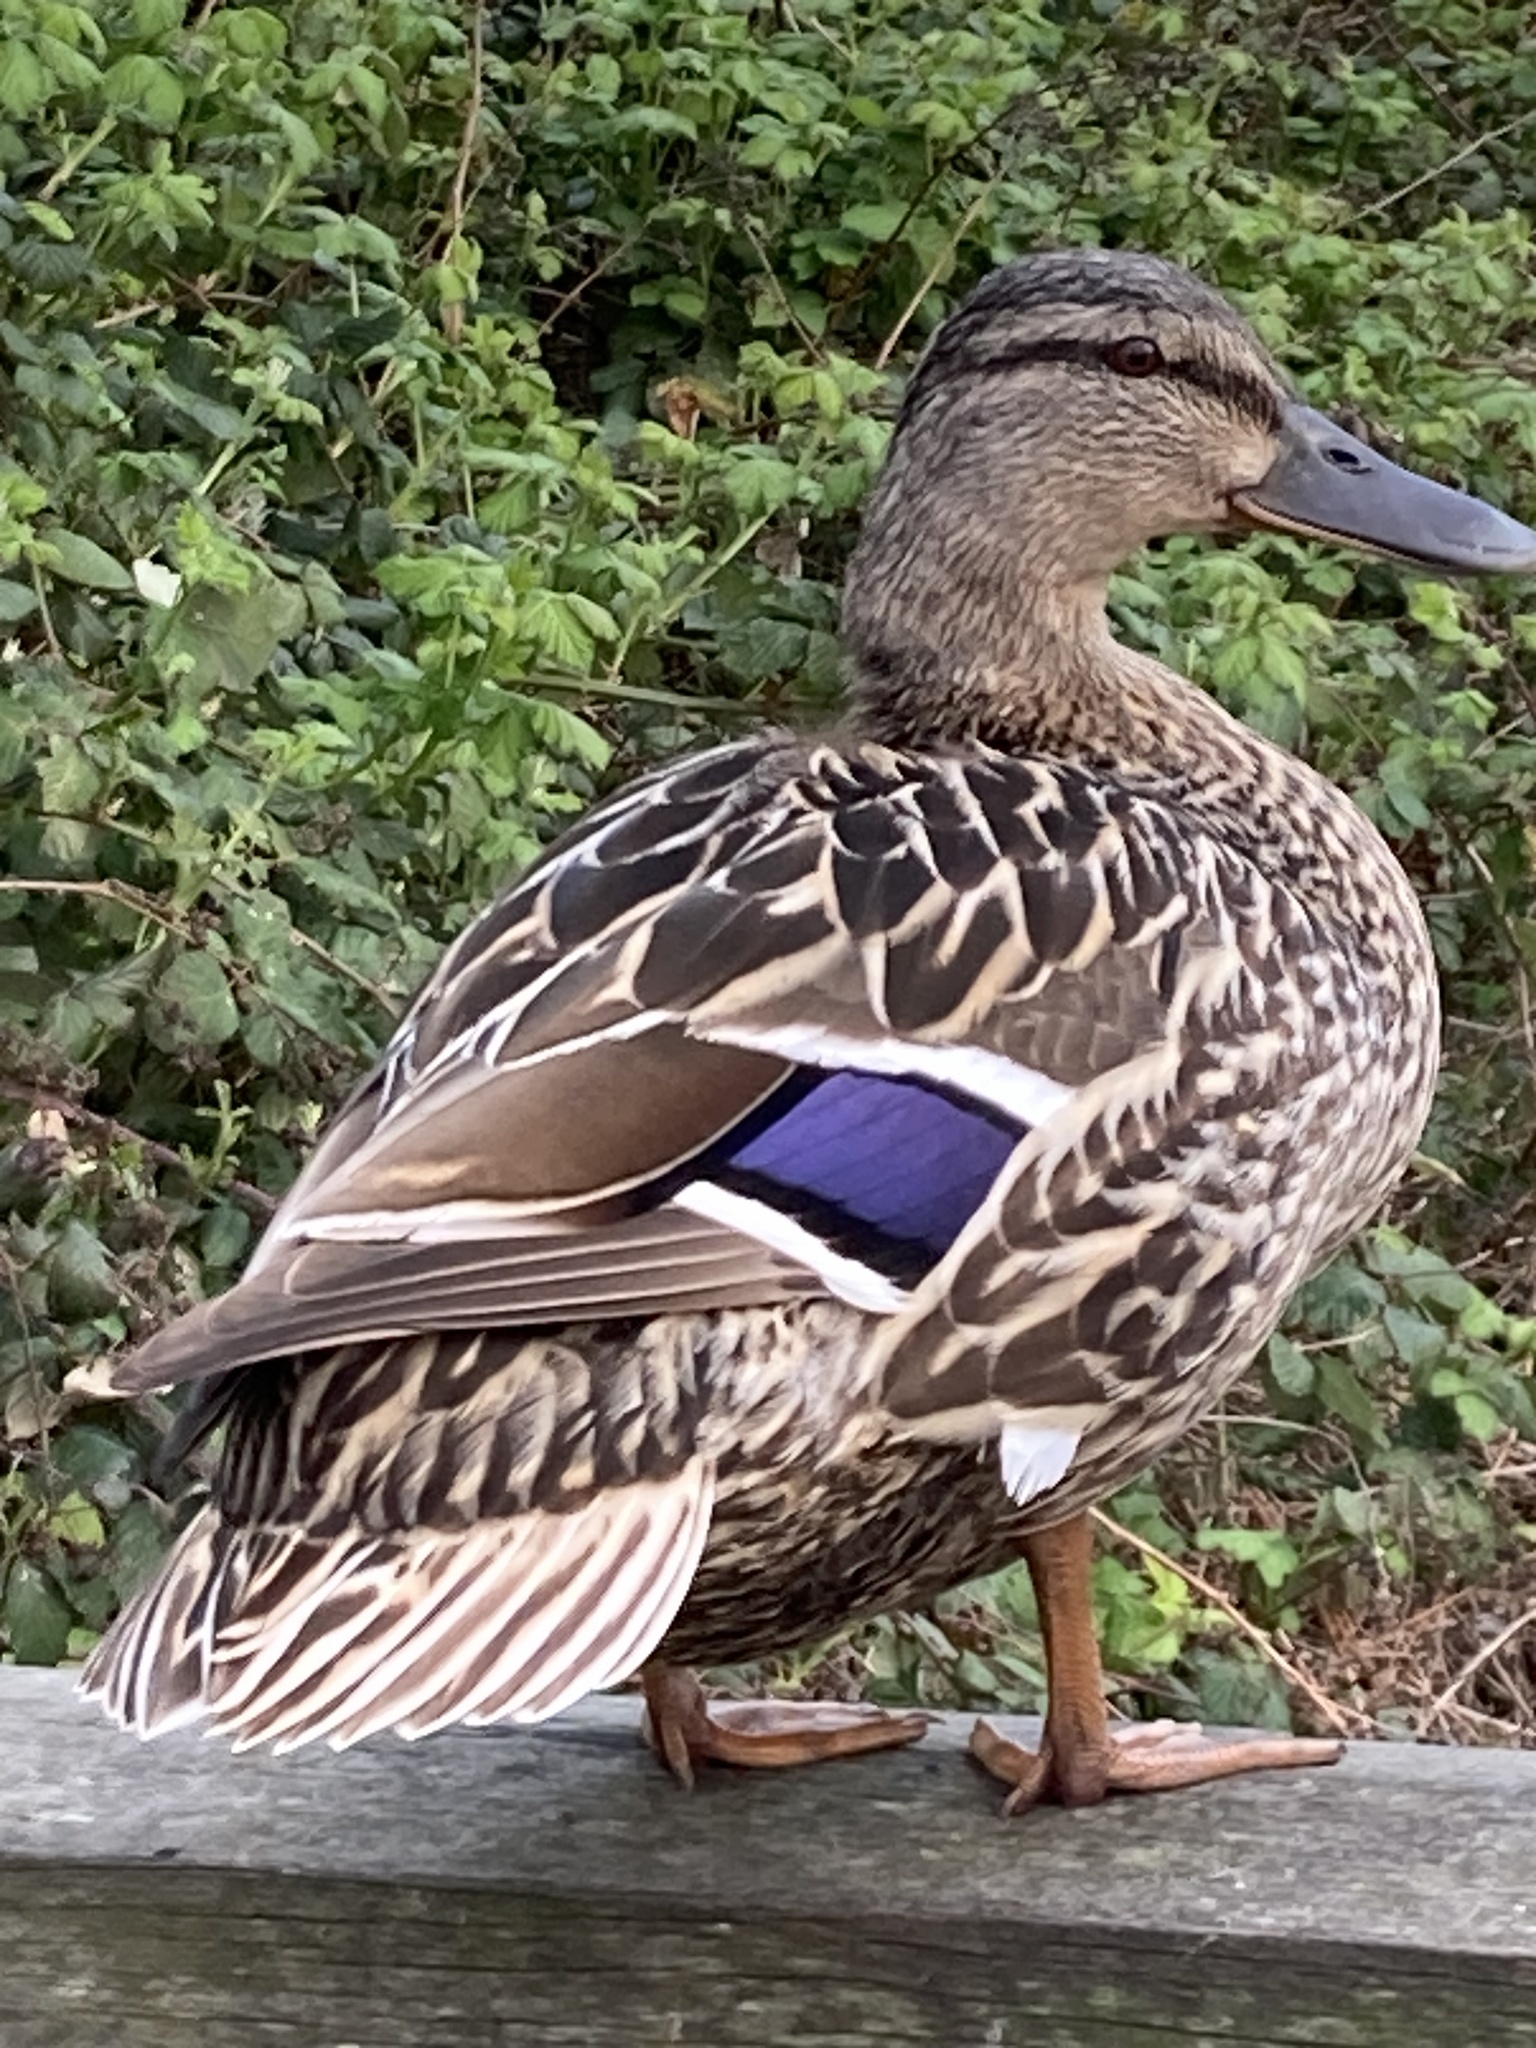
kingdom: Animalia
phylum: Chordata
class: Aves
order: Anseriformes
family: Anatidae
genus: Anas
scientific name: Anas platyrhynchos
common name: Mallard
